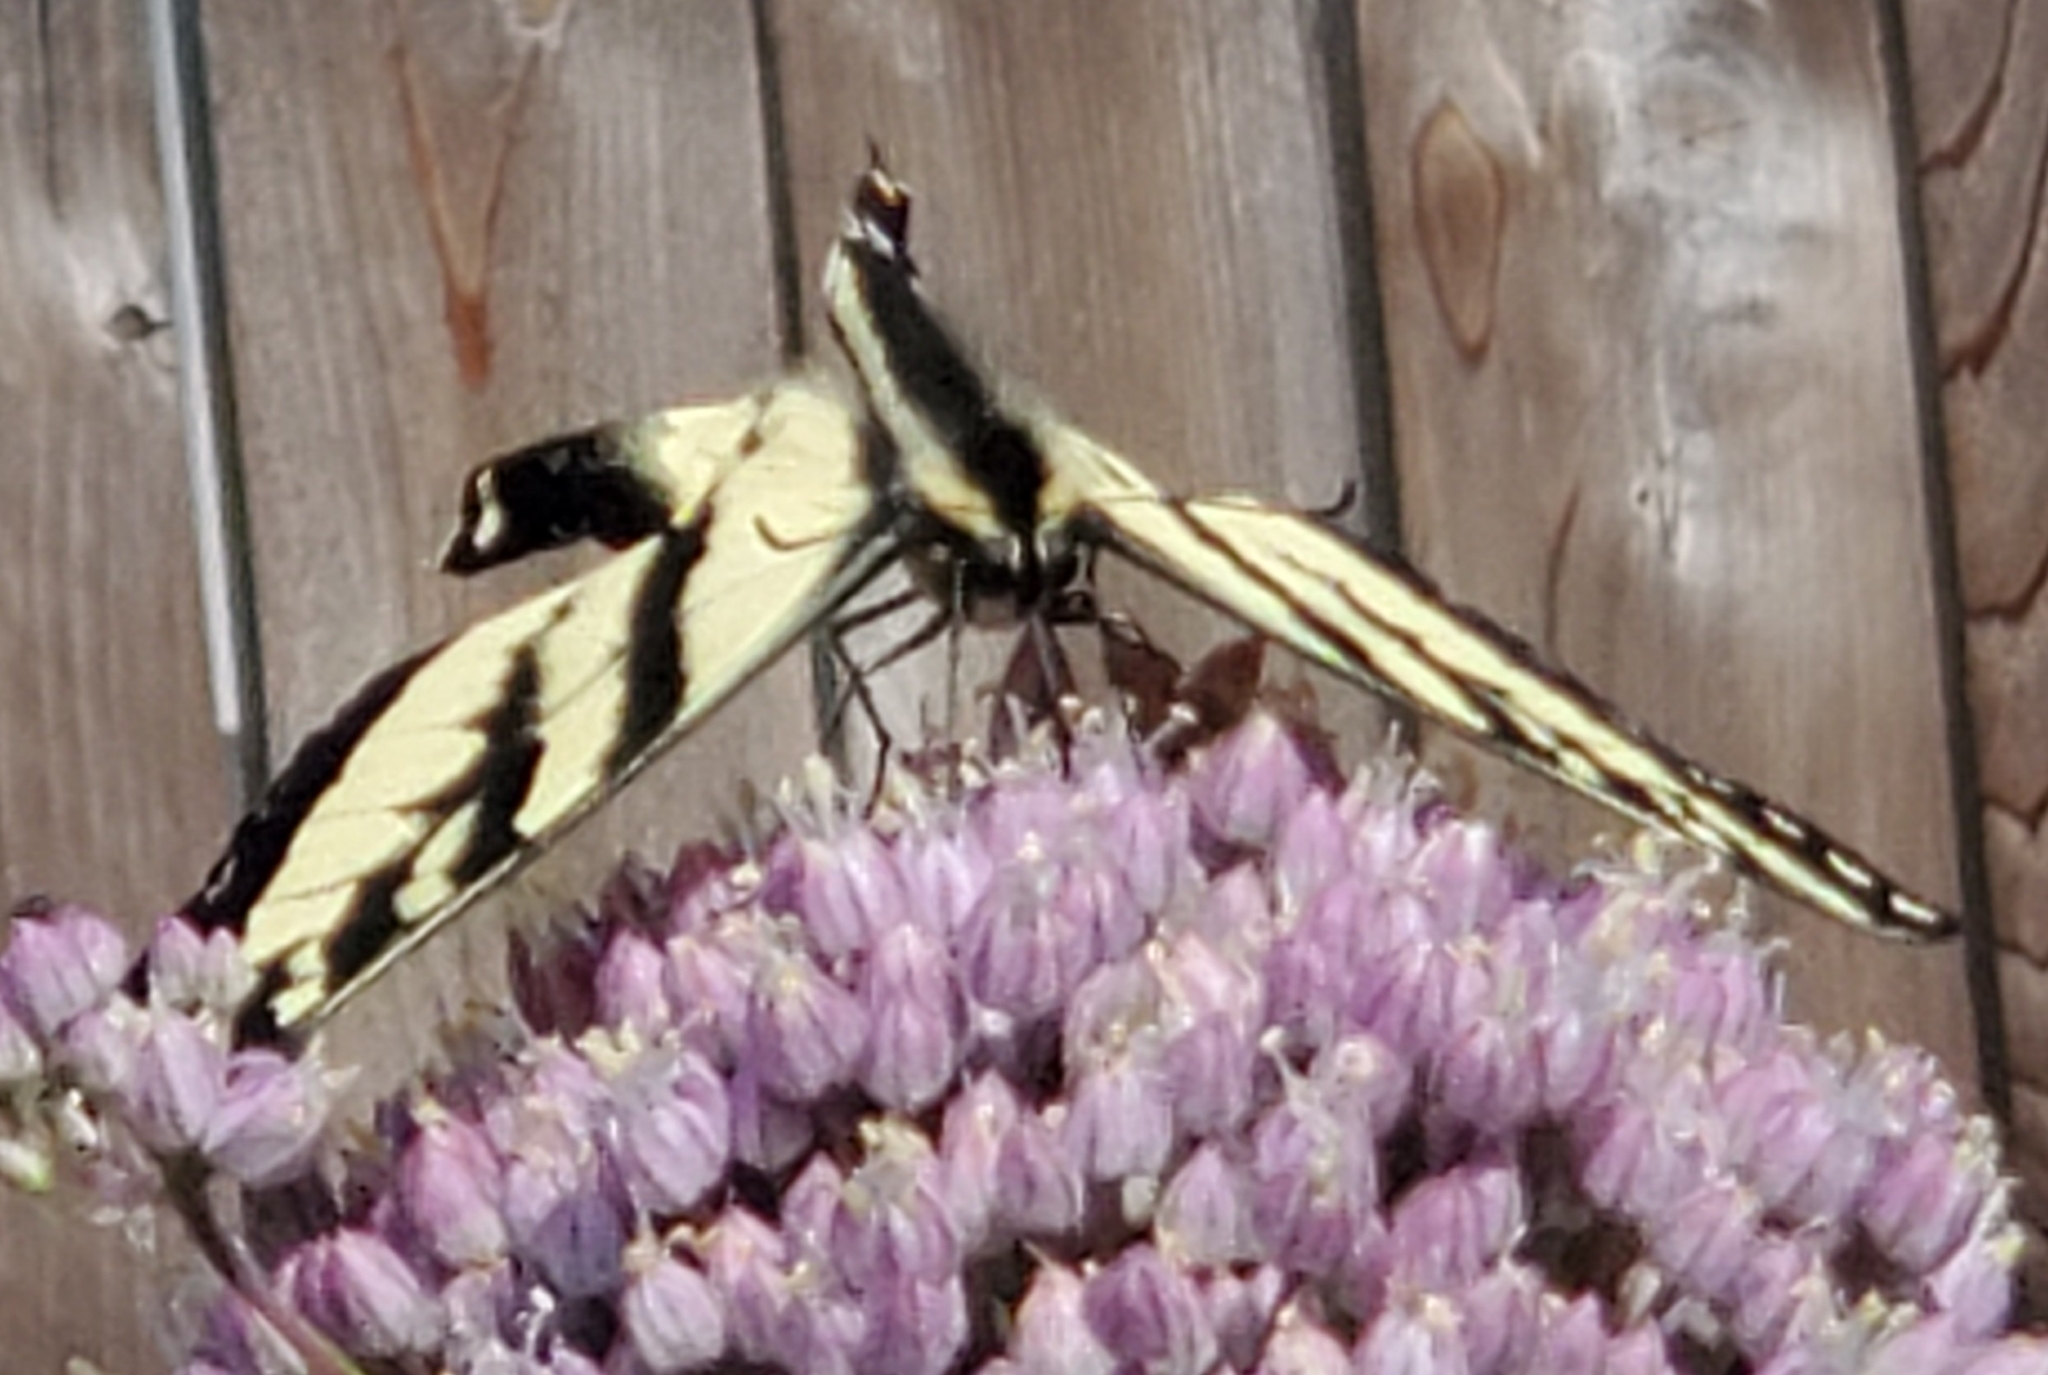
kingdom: Animalia
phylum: Arthropoda
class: Insecta
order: Lepidoptera
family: Papilionidae
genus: Papilio
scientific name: Papilio rutulus
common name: Western tiger swallowtail
